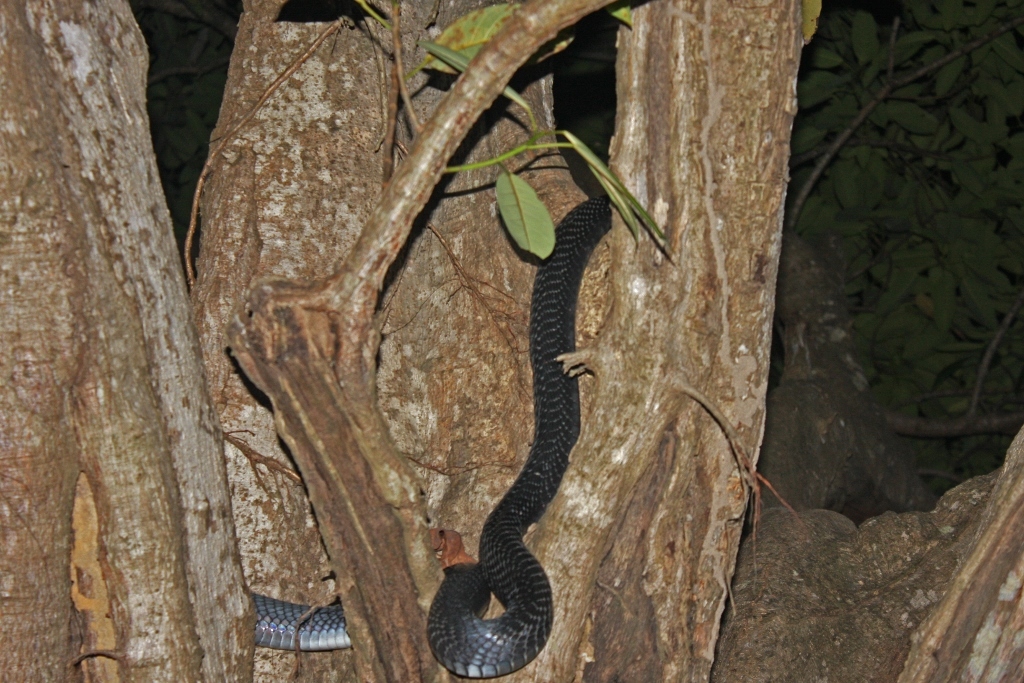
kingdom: Animalia
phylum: Chordata
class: Squamata
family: Elapidae
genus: Naja
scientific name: Naja nigricollis
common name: Black-necked spitting cobra
